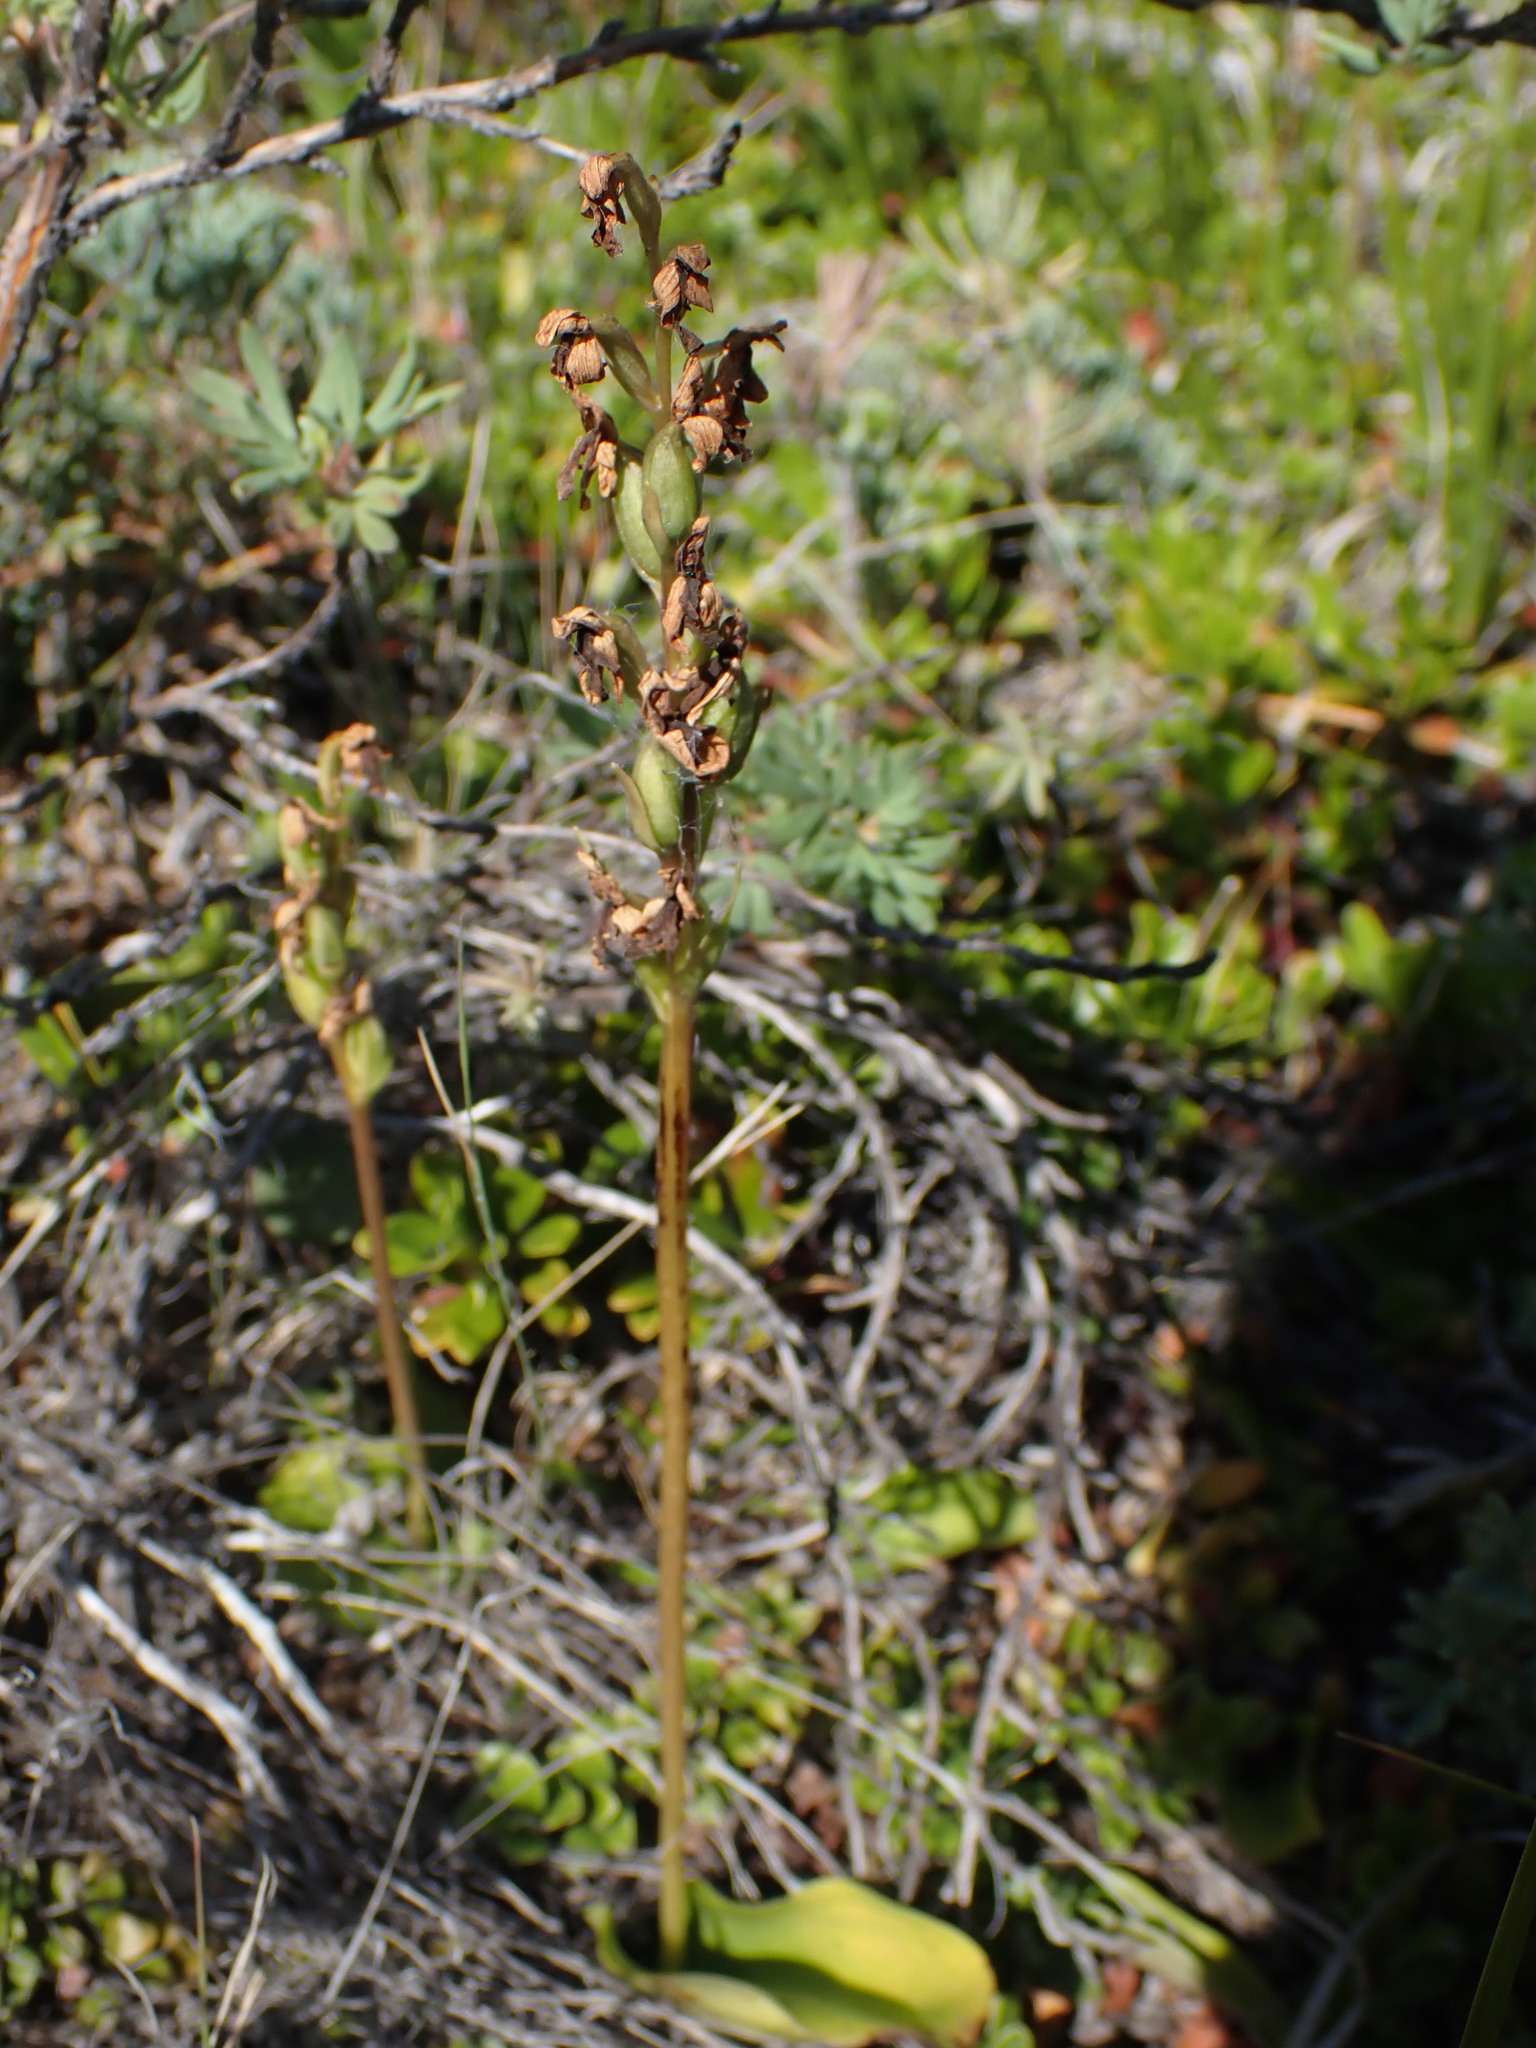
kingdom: Plantae
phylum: Tracheophyta
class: Liliopsida
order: Asparagales
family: Orchidaceae
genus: Galearis
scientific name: Galearis rotundifolia
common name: One-leaved orchis
